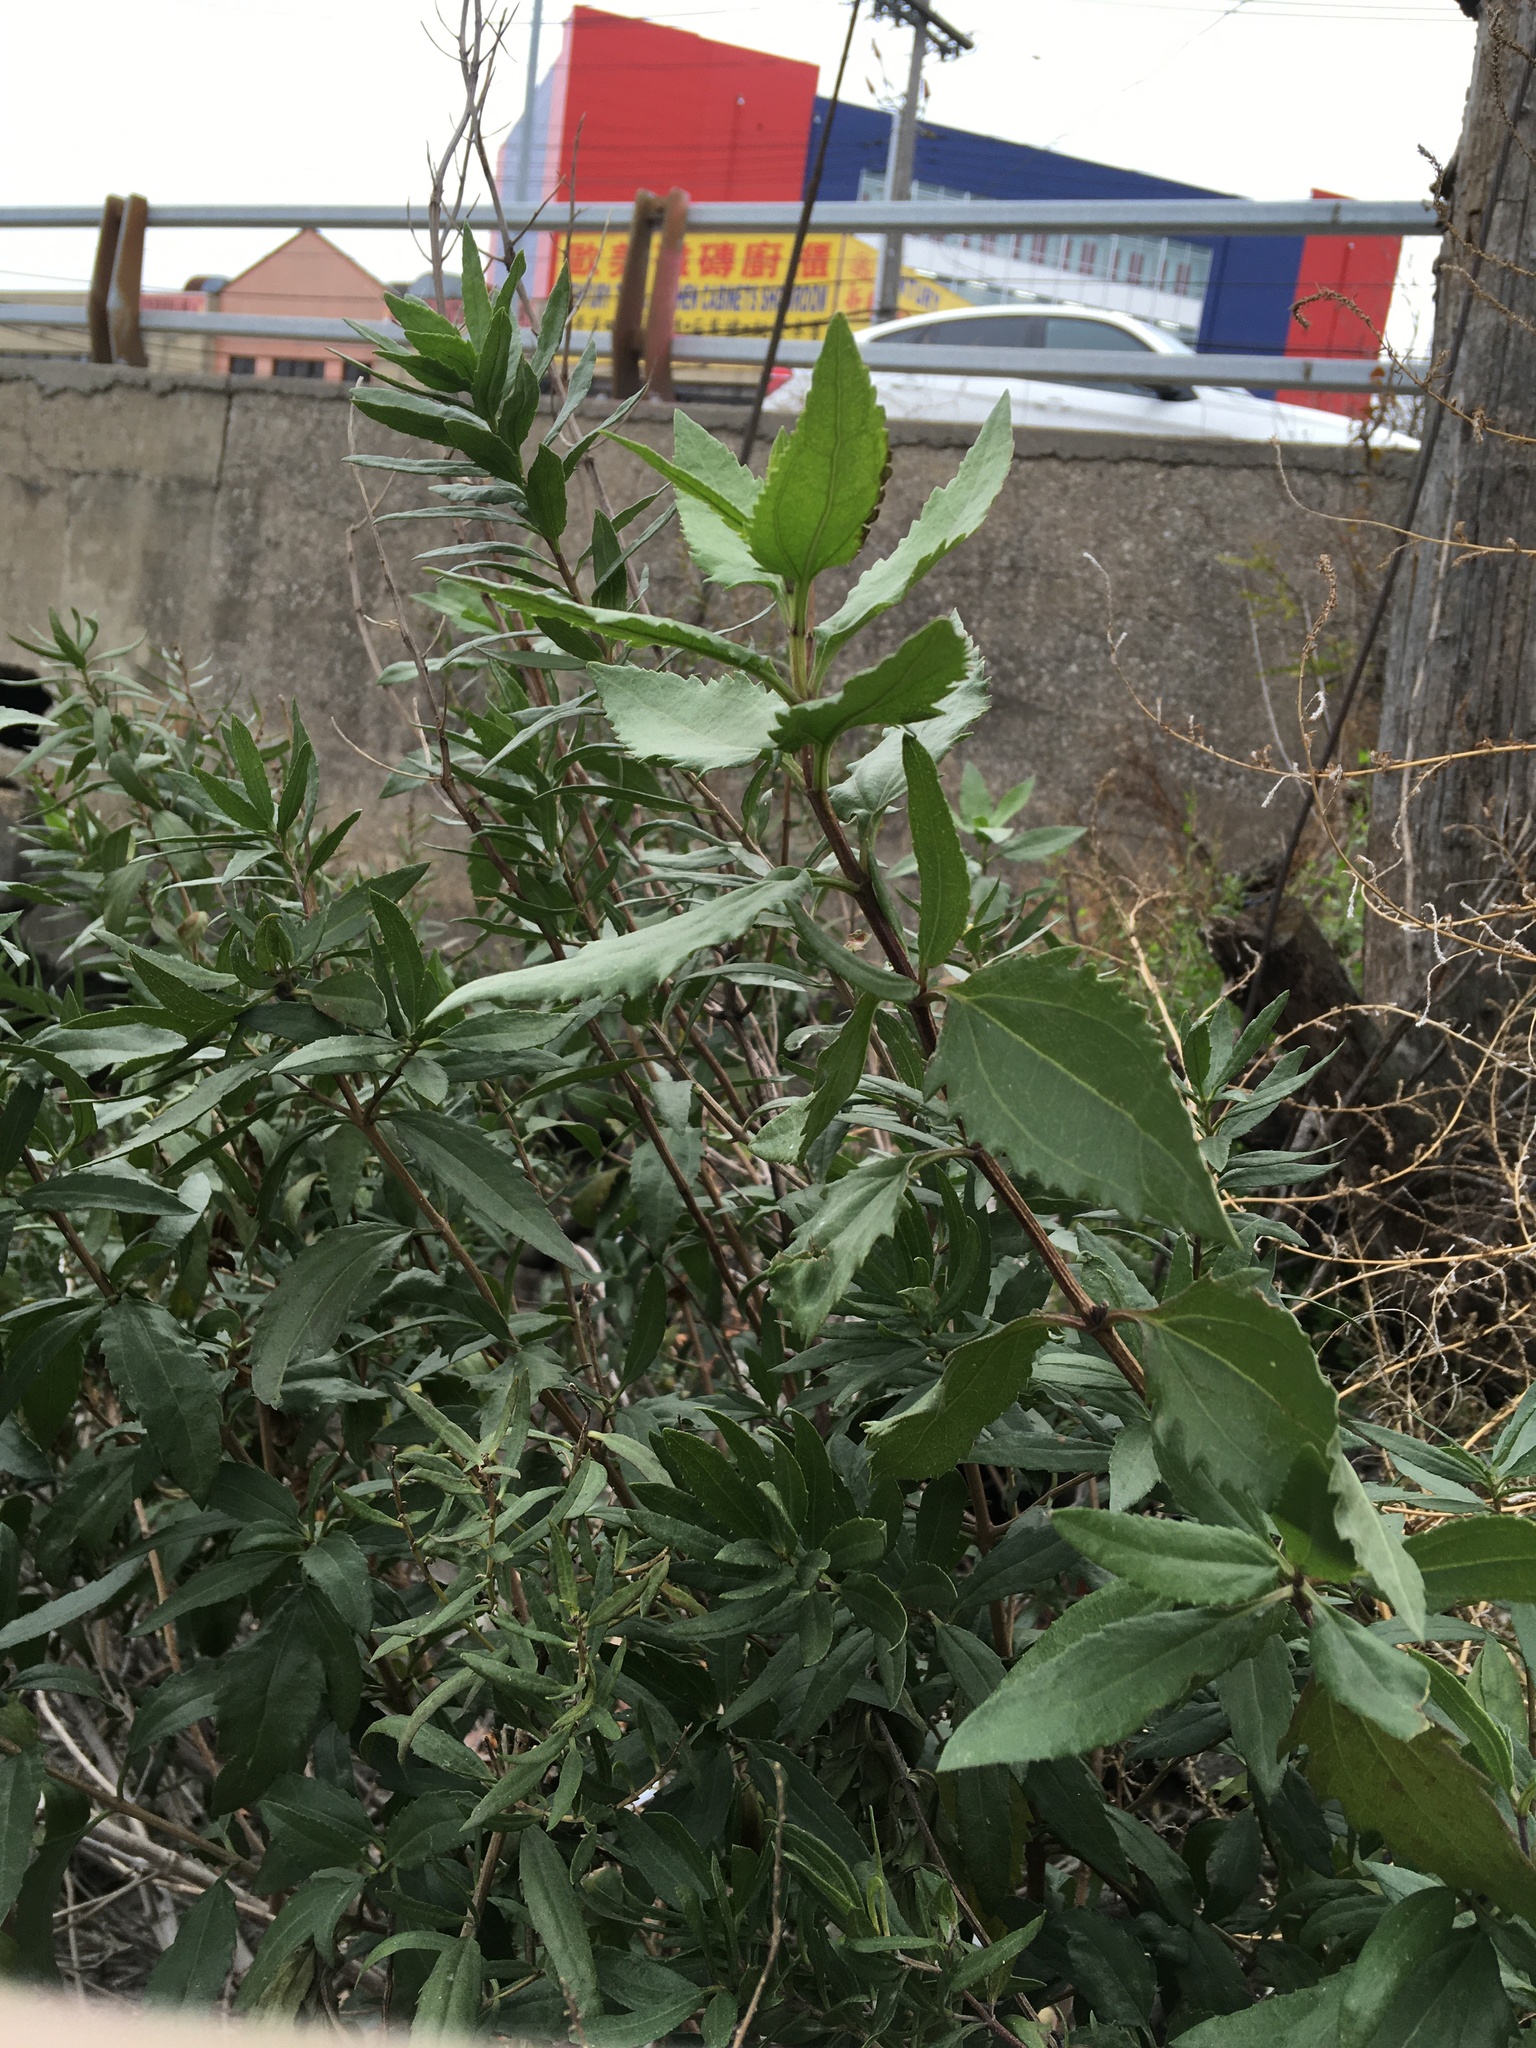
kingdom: Plantae
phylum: Tracheophyta
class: Magnoliopsida
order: Asterales
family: Asteraceae
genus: Iva
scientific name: Iva frutescens
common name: Big-leaved marsh-elder
